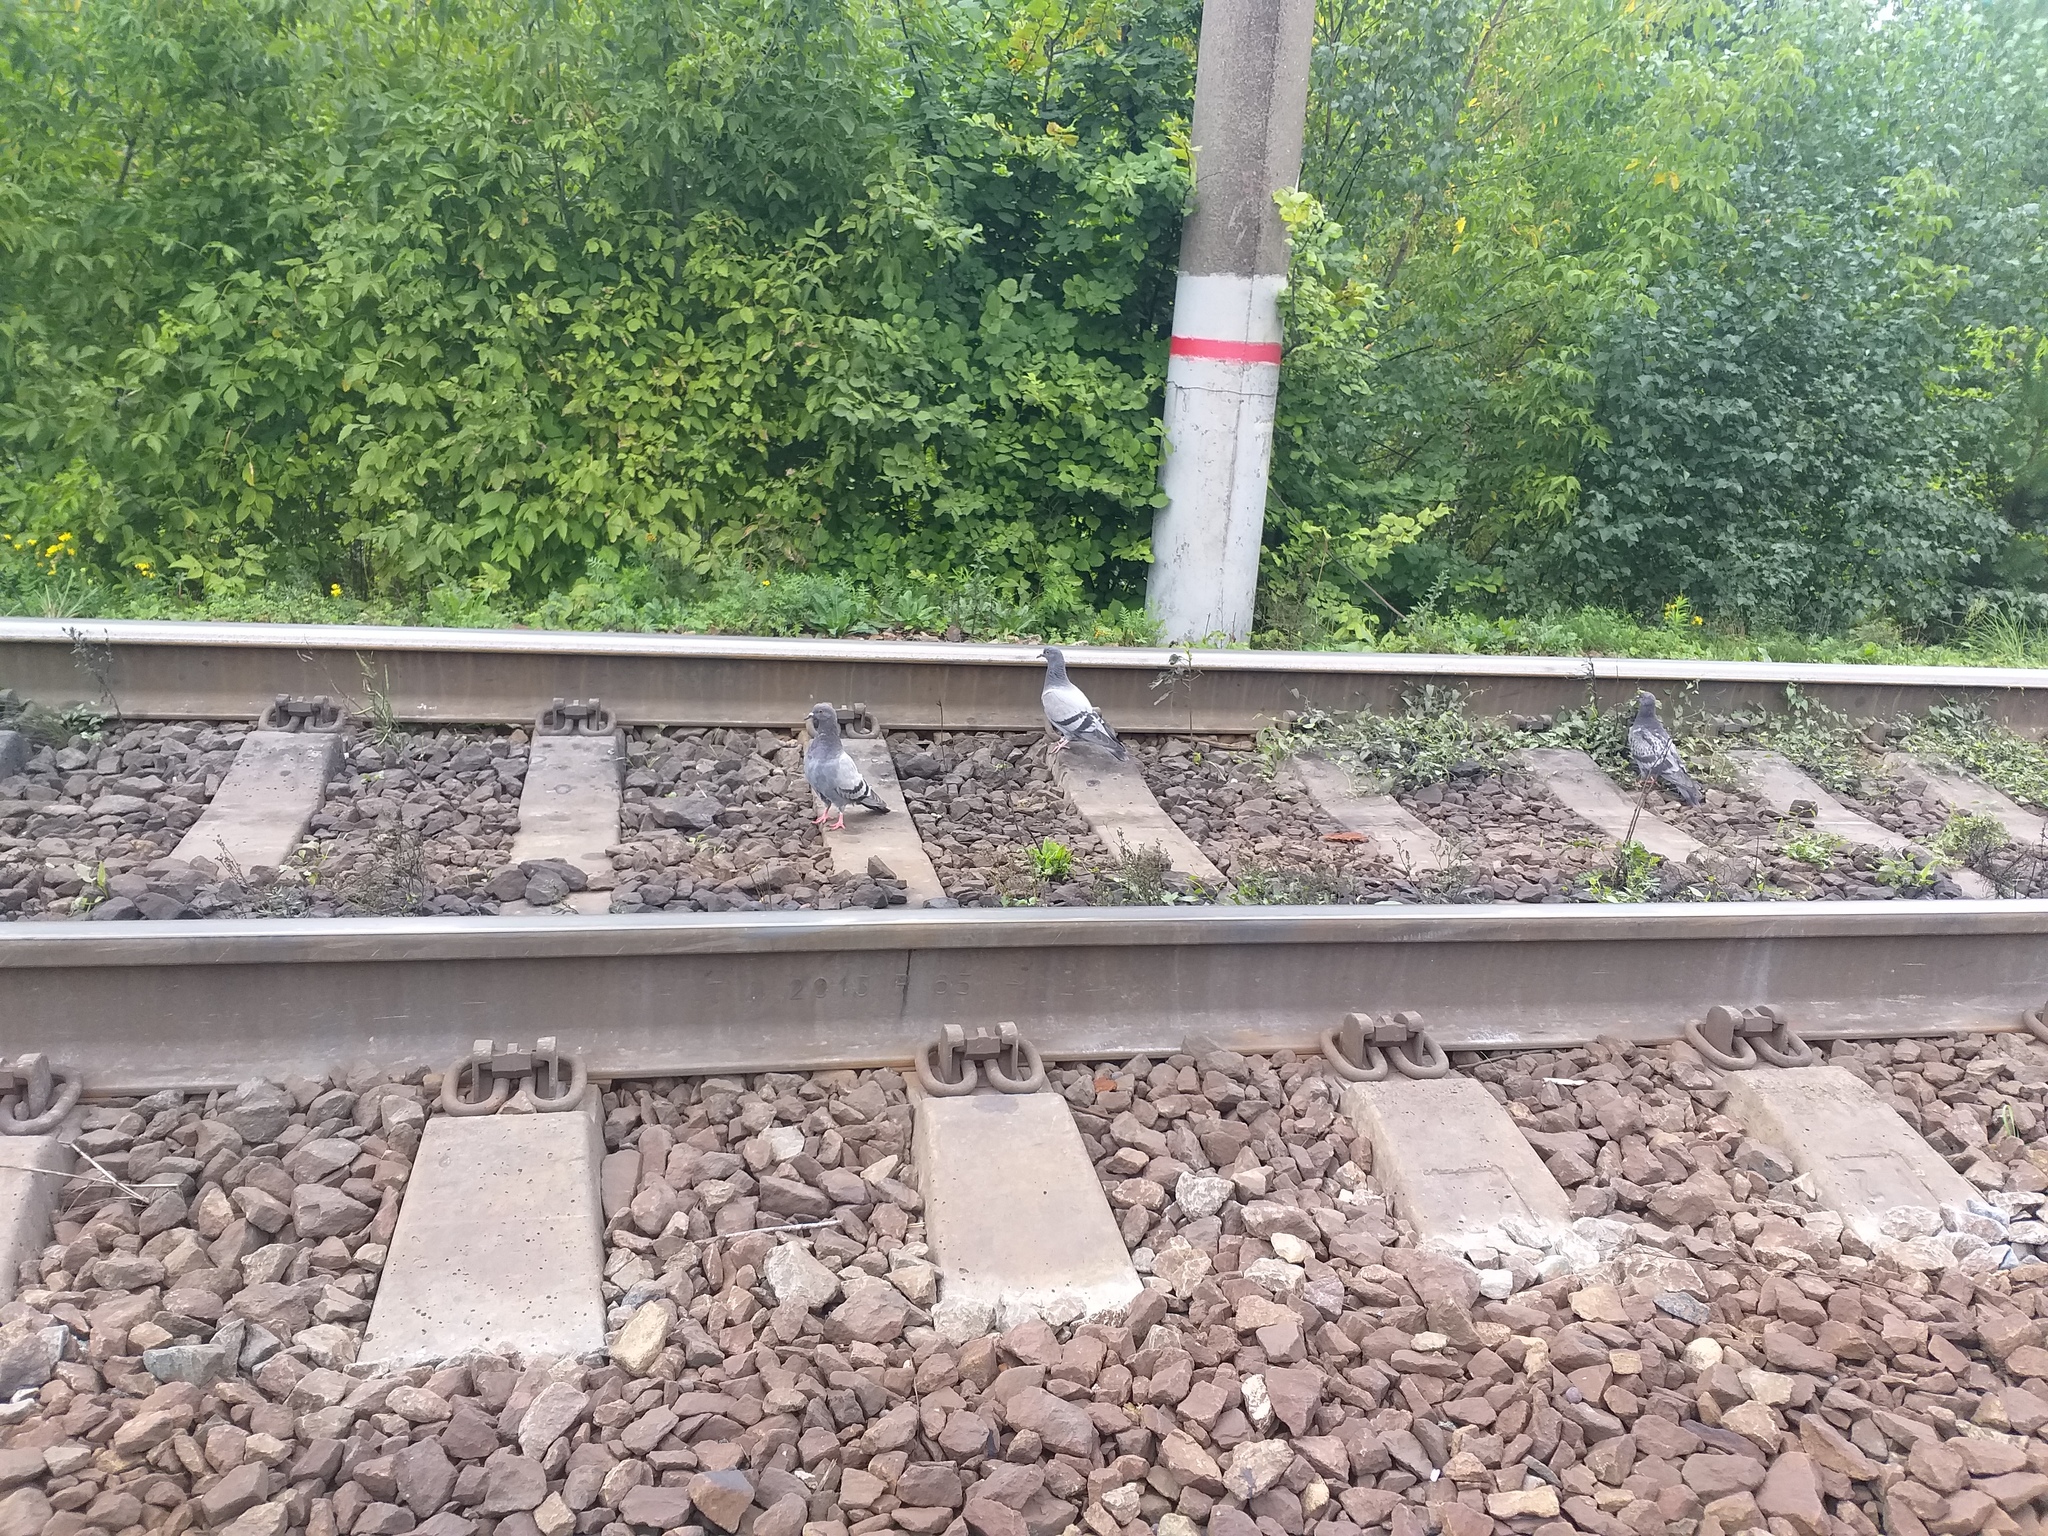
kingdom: Animalia
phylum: Chordata
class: Aves
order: Columbiformes
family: Columbidae
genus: Columba
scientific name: Columba livia
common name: Rock pigeon
